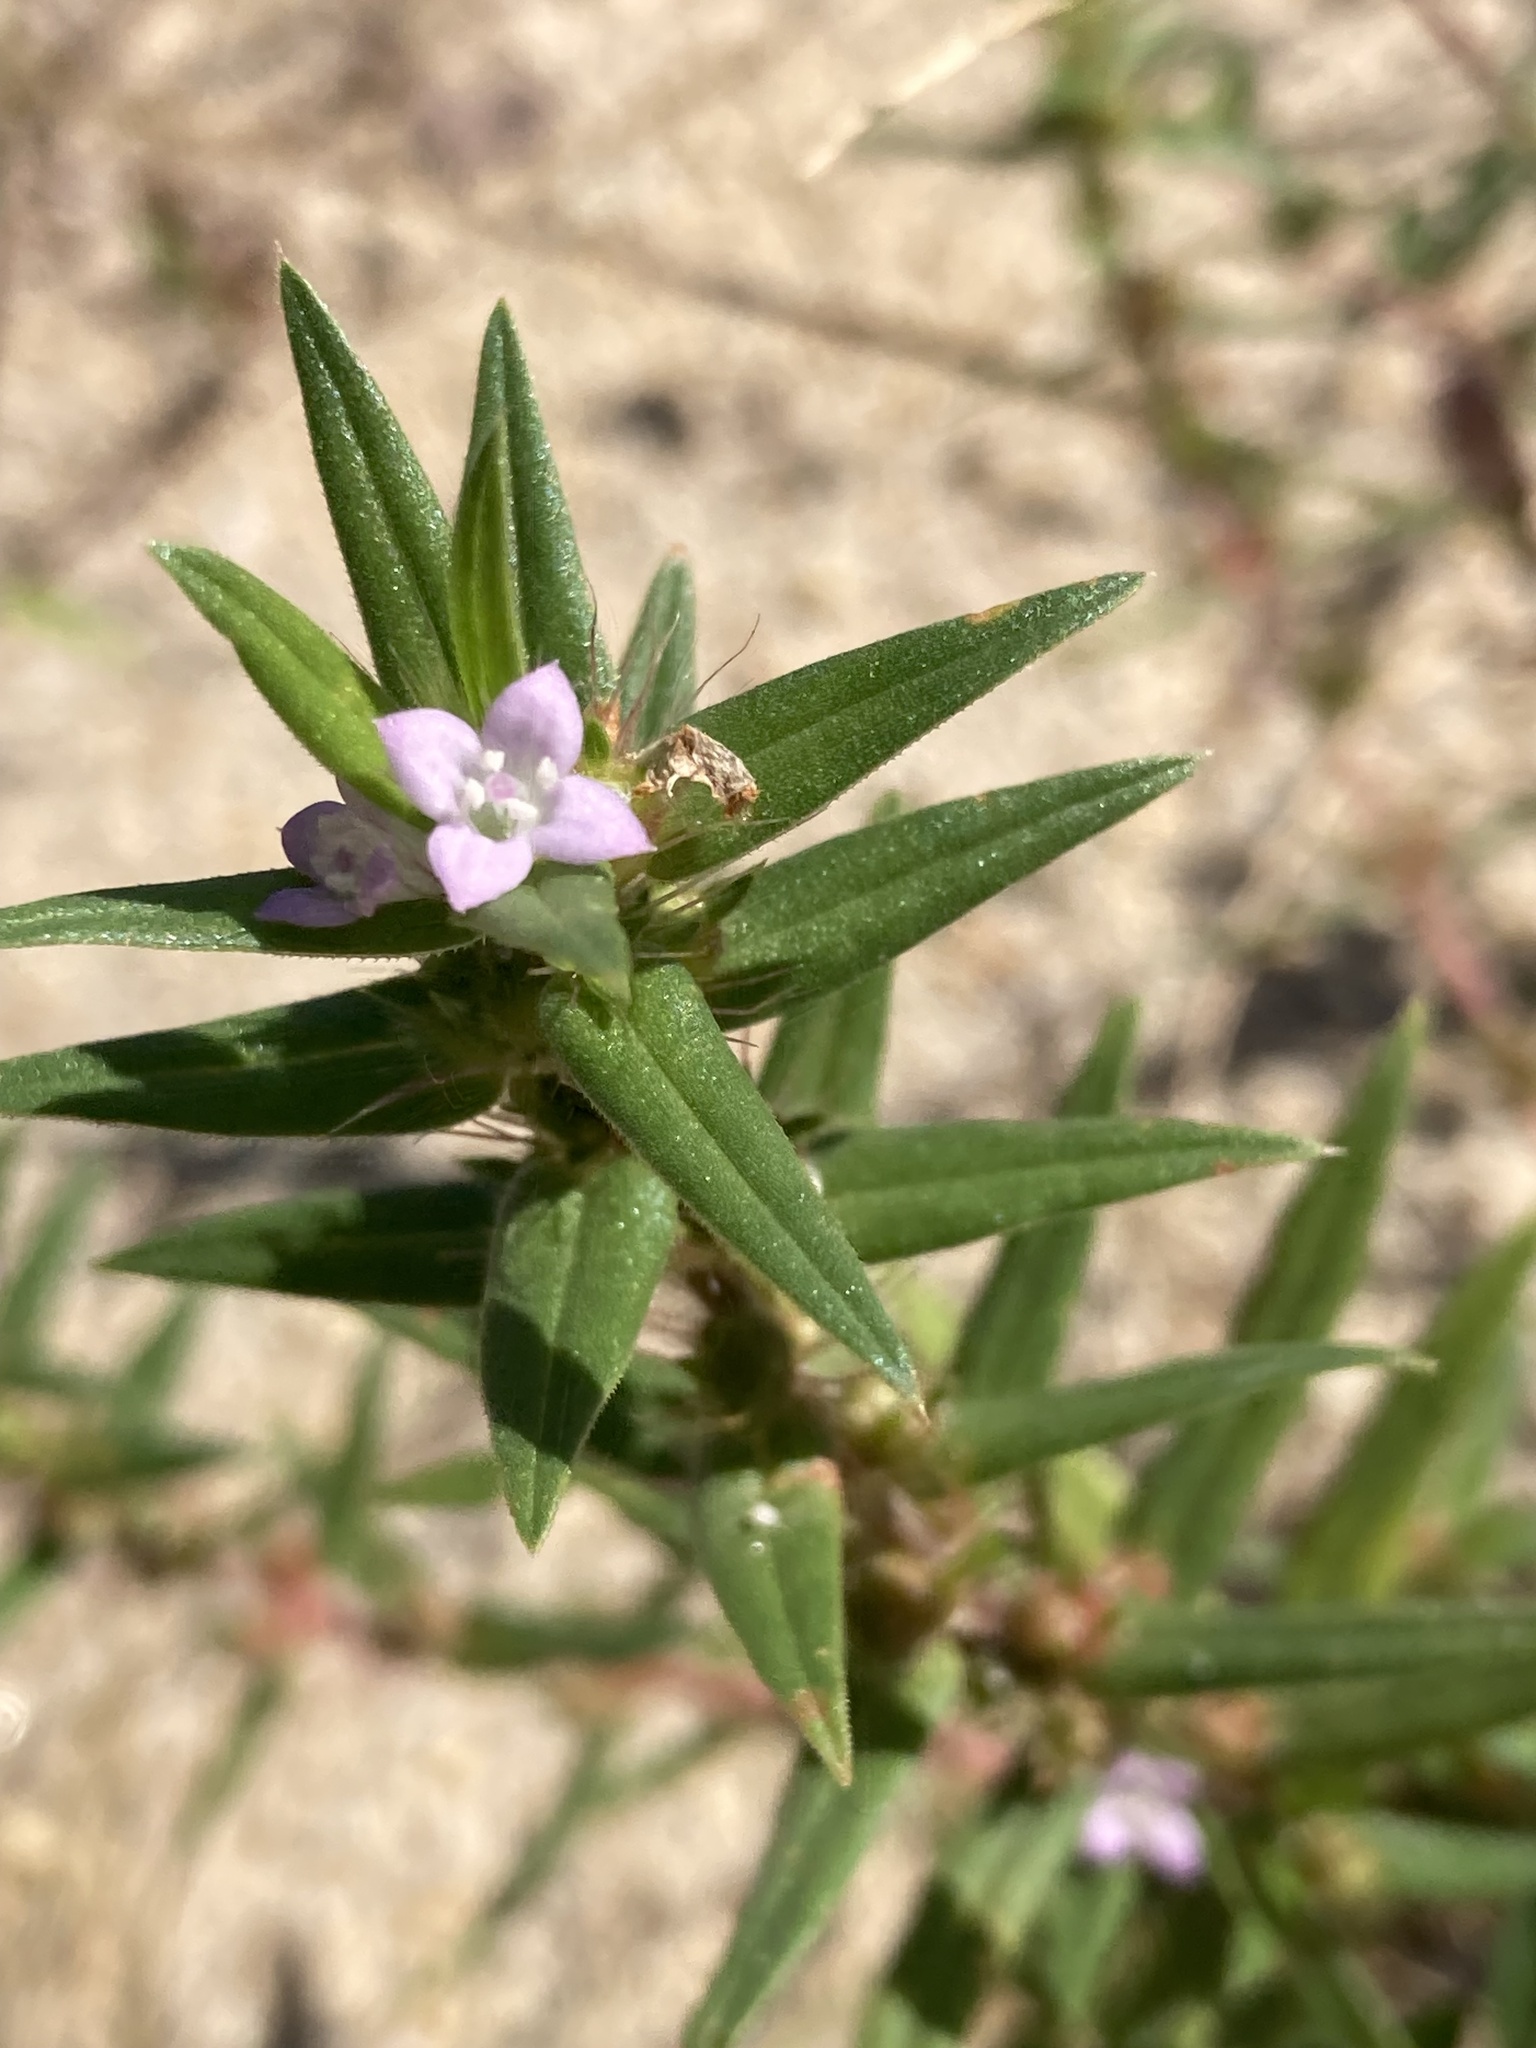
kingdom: Plantae
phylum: Tracheophyta
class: Magnoliopsida
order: Gentianales
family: Rubiaceae
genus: Hexasepalum
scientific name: Hexasepalum teres
